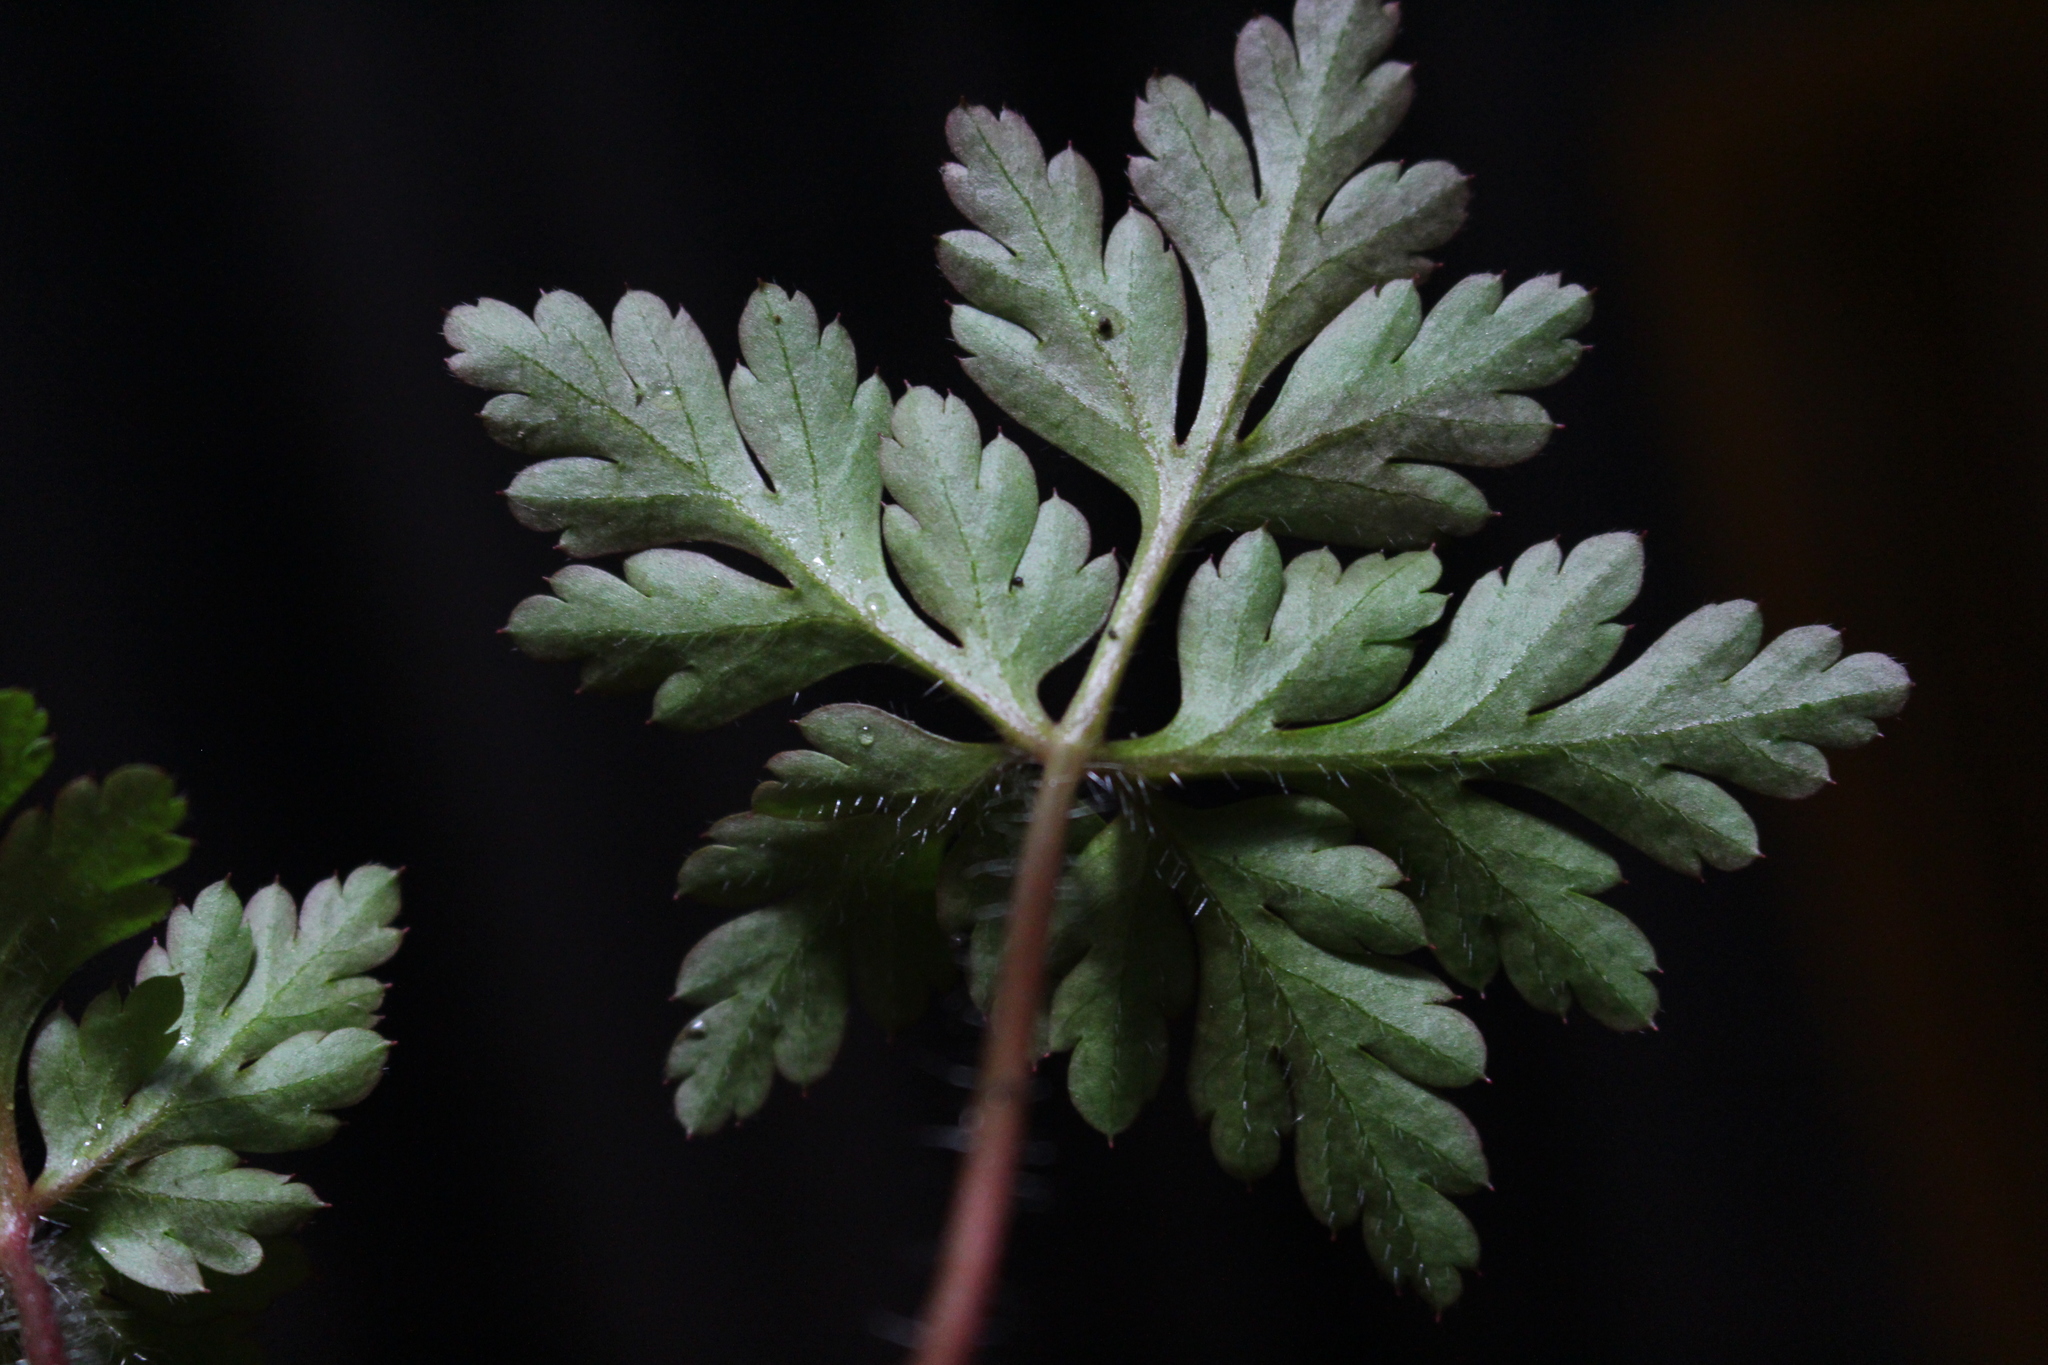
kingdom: Plantae
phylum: Tracheophyta
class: Magnoliopsida
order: Geraniales
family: Geraniaceae
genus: Geranium
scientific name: Geranium yeoi
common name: Greater herb robert
